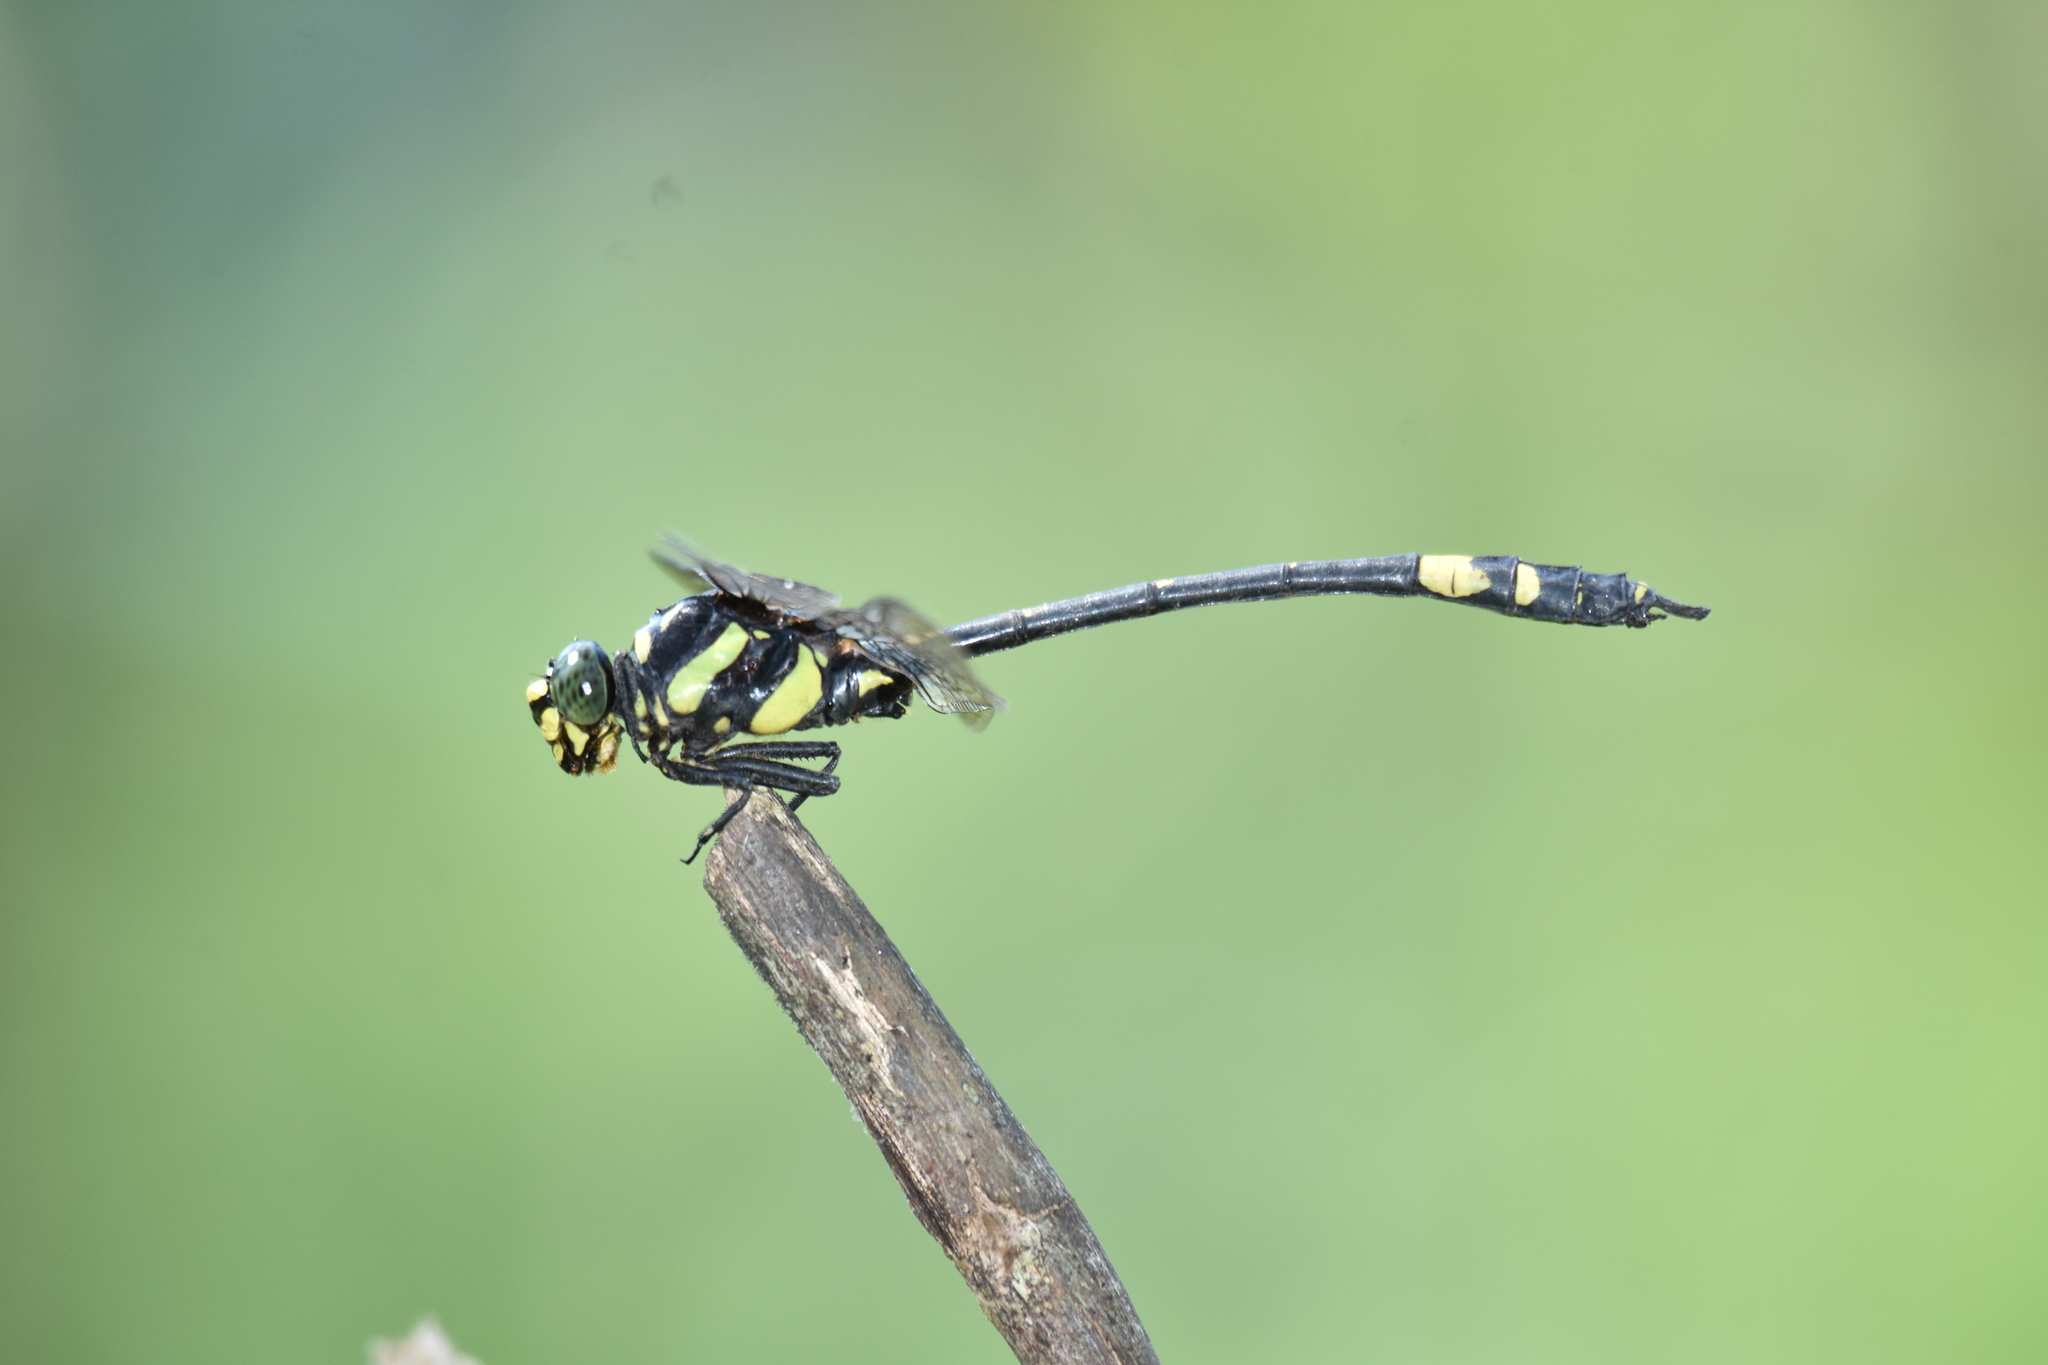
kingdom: Animalia
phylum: Arthropoda
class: Insecta
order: Odonata
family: Gomphidae
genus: Gomphidia
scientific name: Gomphidia kodaguensis
